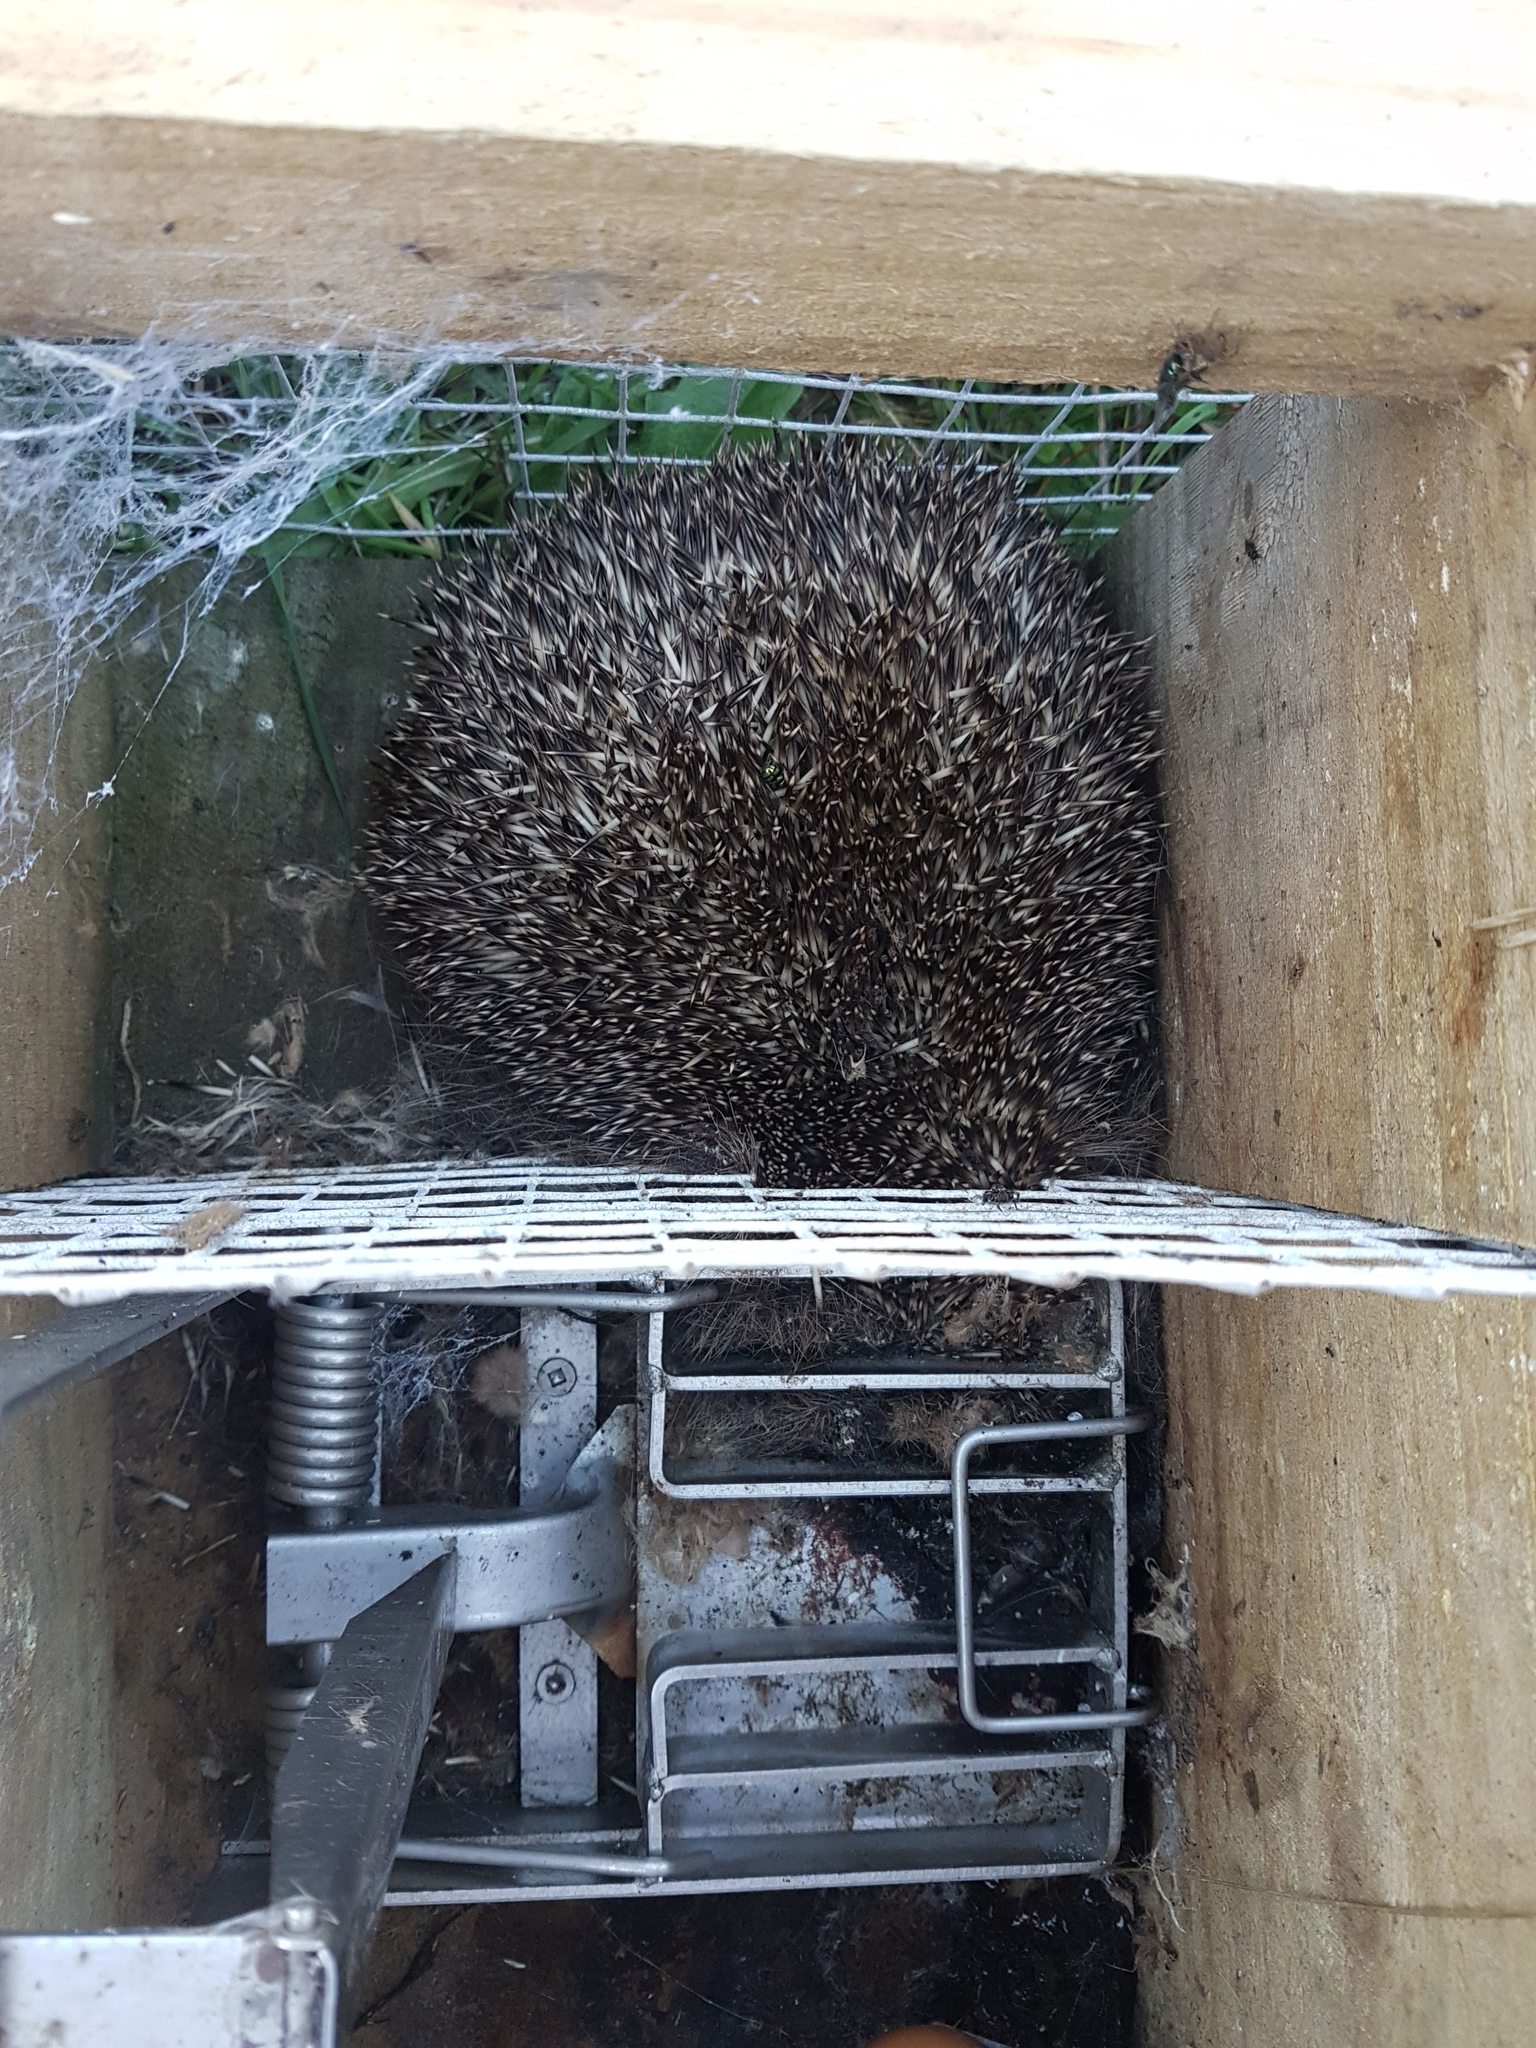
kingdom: Animalia
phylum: Chordata
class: Mammalia
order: Erinaceomorpha
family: Erinaceidae
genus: Erinaceus
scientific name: Erinaceus europaeus
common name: West european hedgehog
